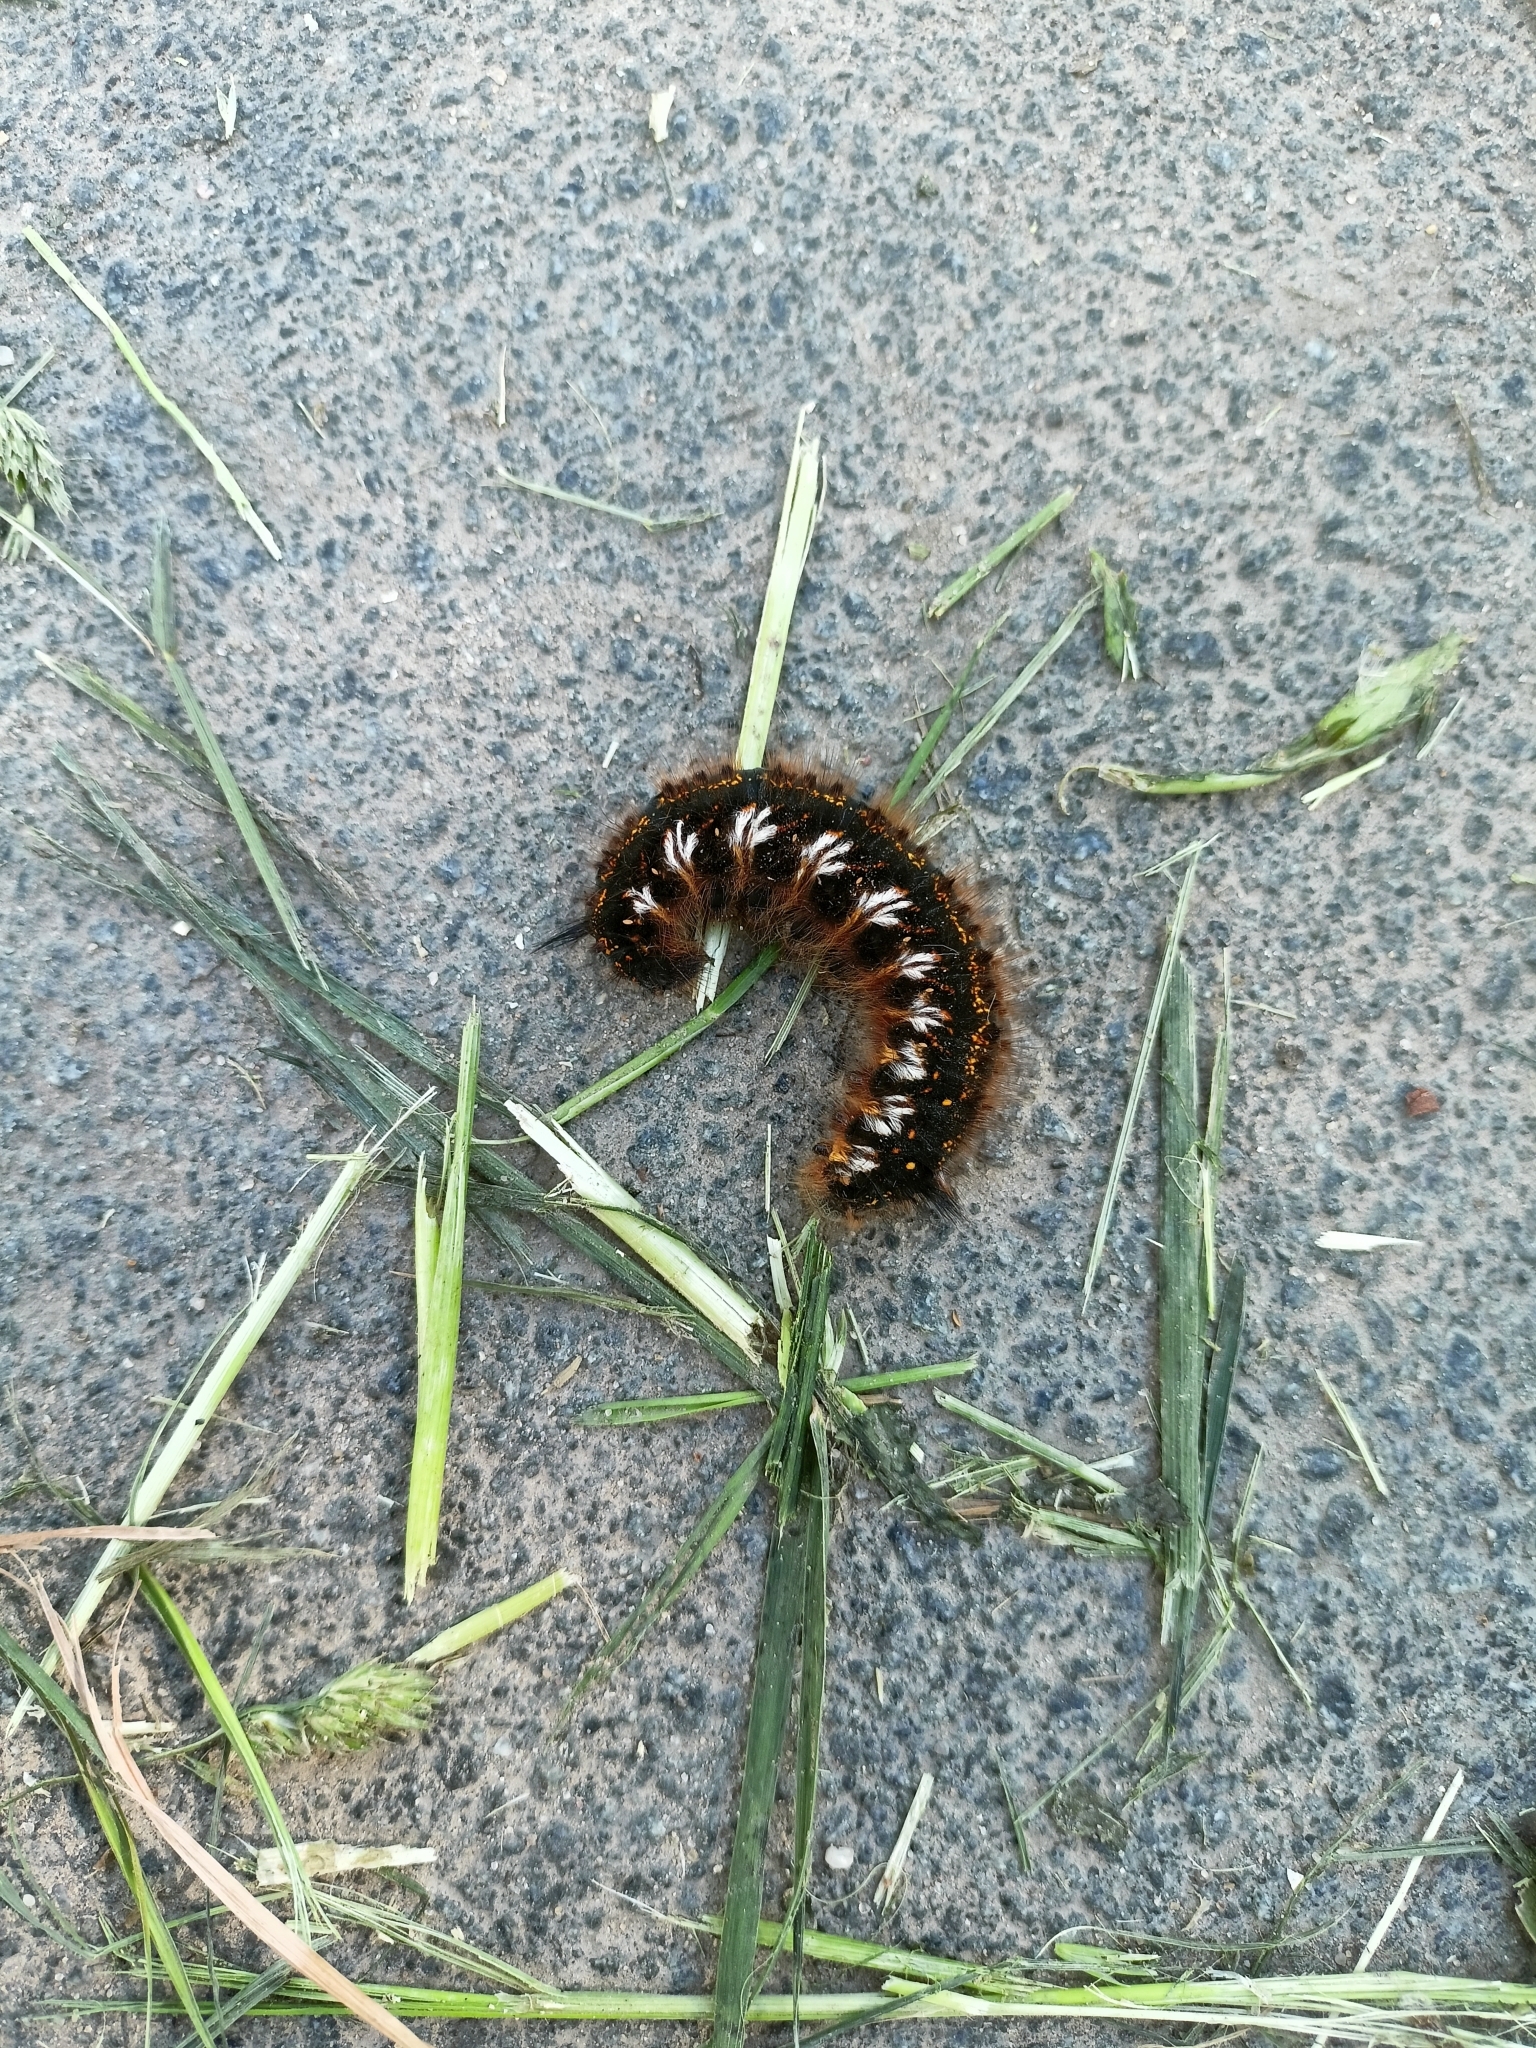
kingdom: Animalia
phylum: Arthropoda
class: Insecta
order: Lepidoptera
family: Lasiocampidae
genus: Euthrix
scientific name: Euthrix potatoria
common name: Drinker
